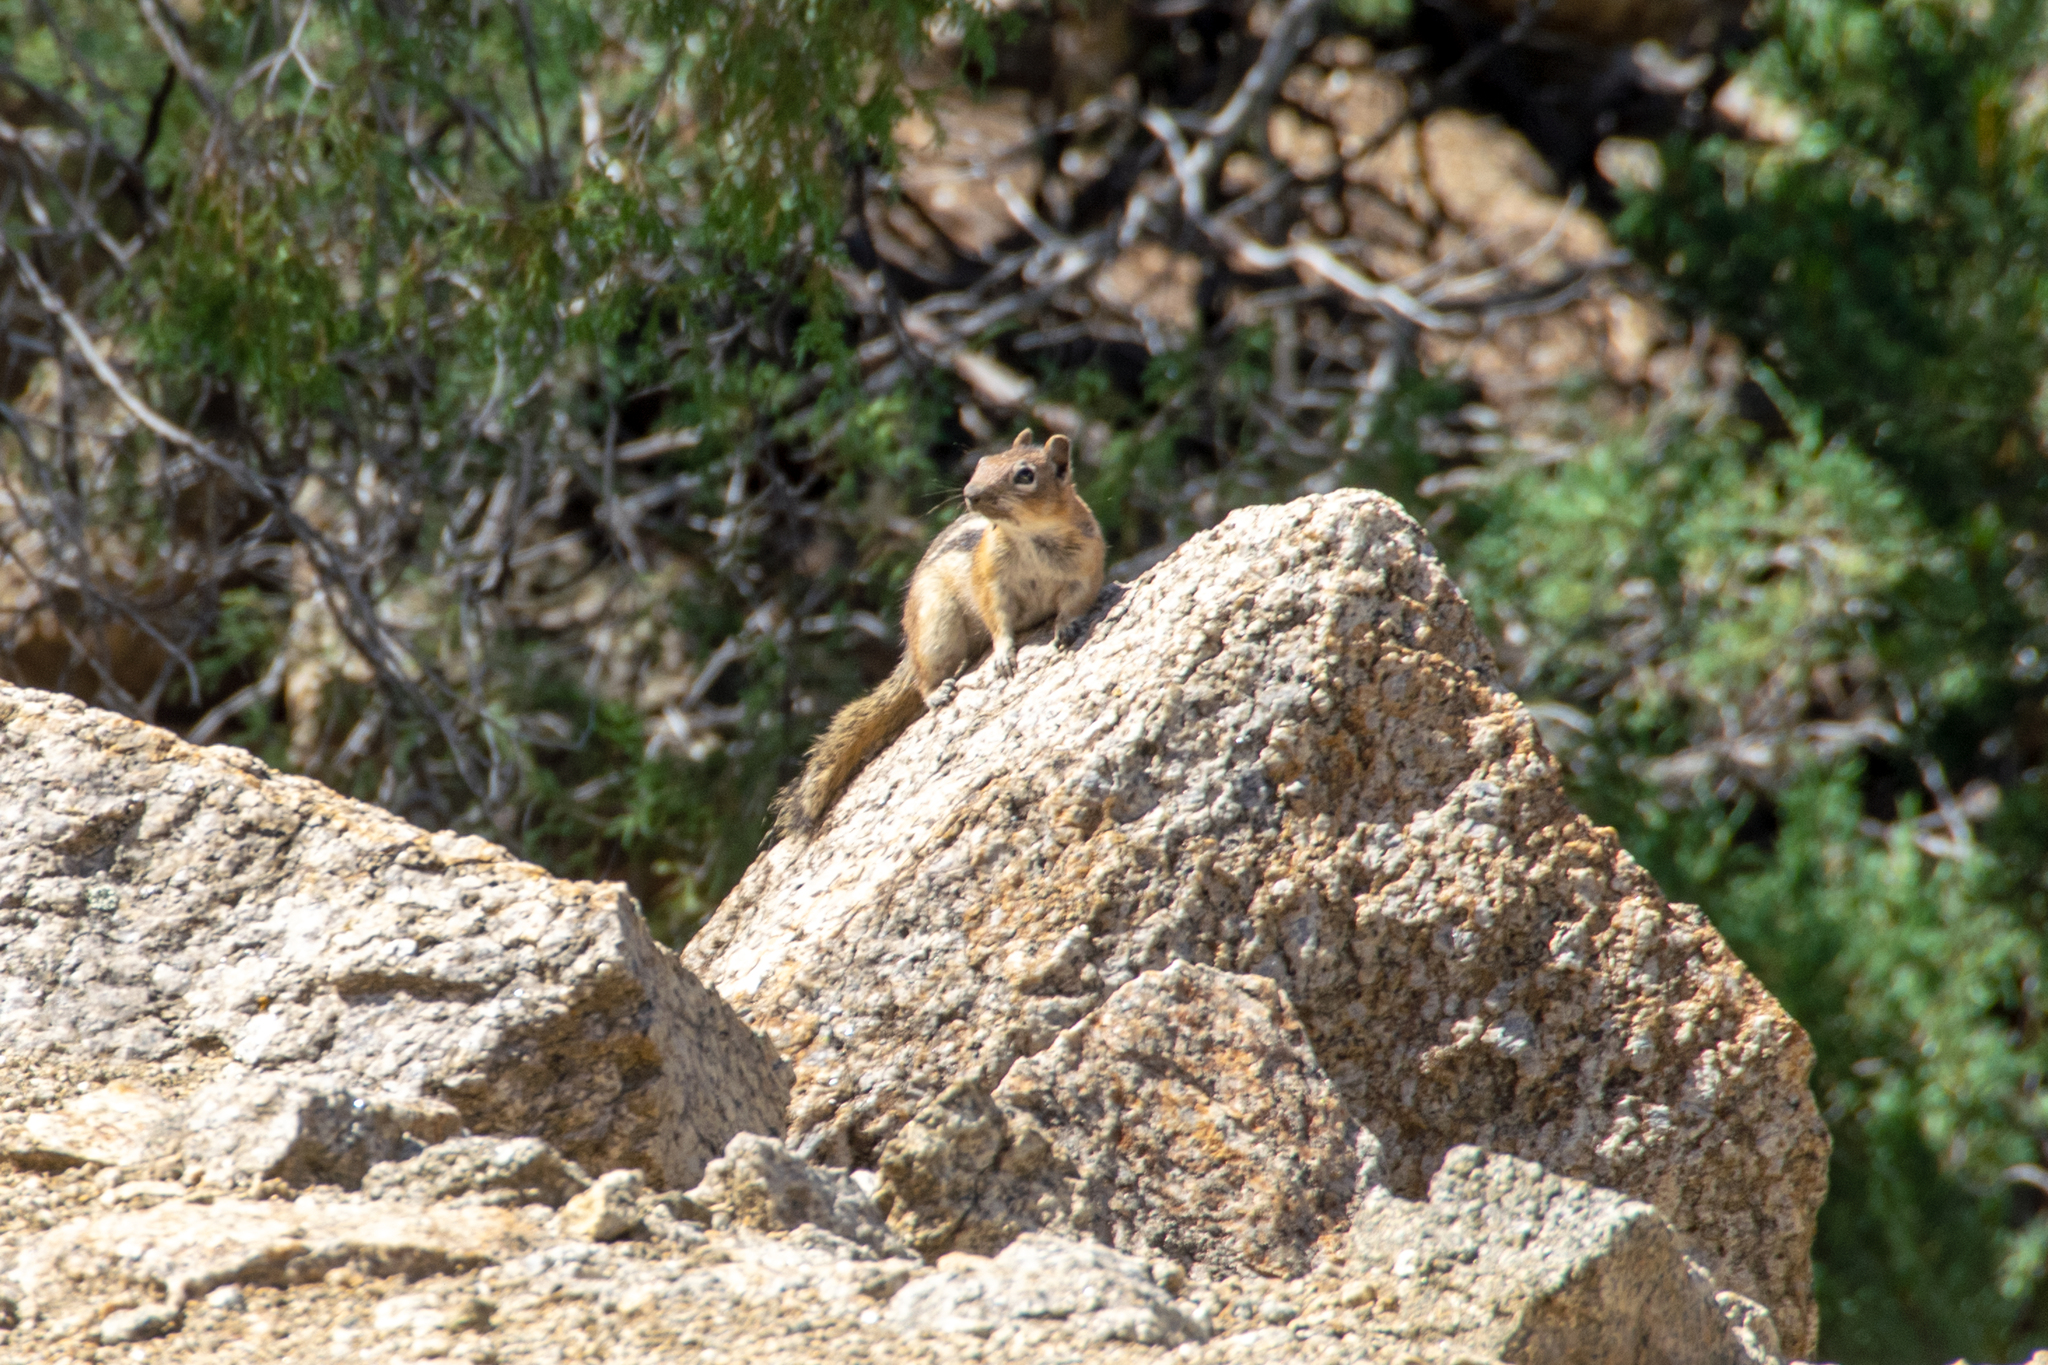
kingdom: Animalia
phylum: Chordata
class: Mammalia
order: Rodentia
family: Sciuridae
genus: Callospermophilus
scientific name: Callospermophilus lateralis
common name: Golden-mantled ground squirrel
